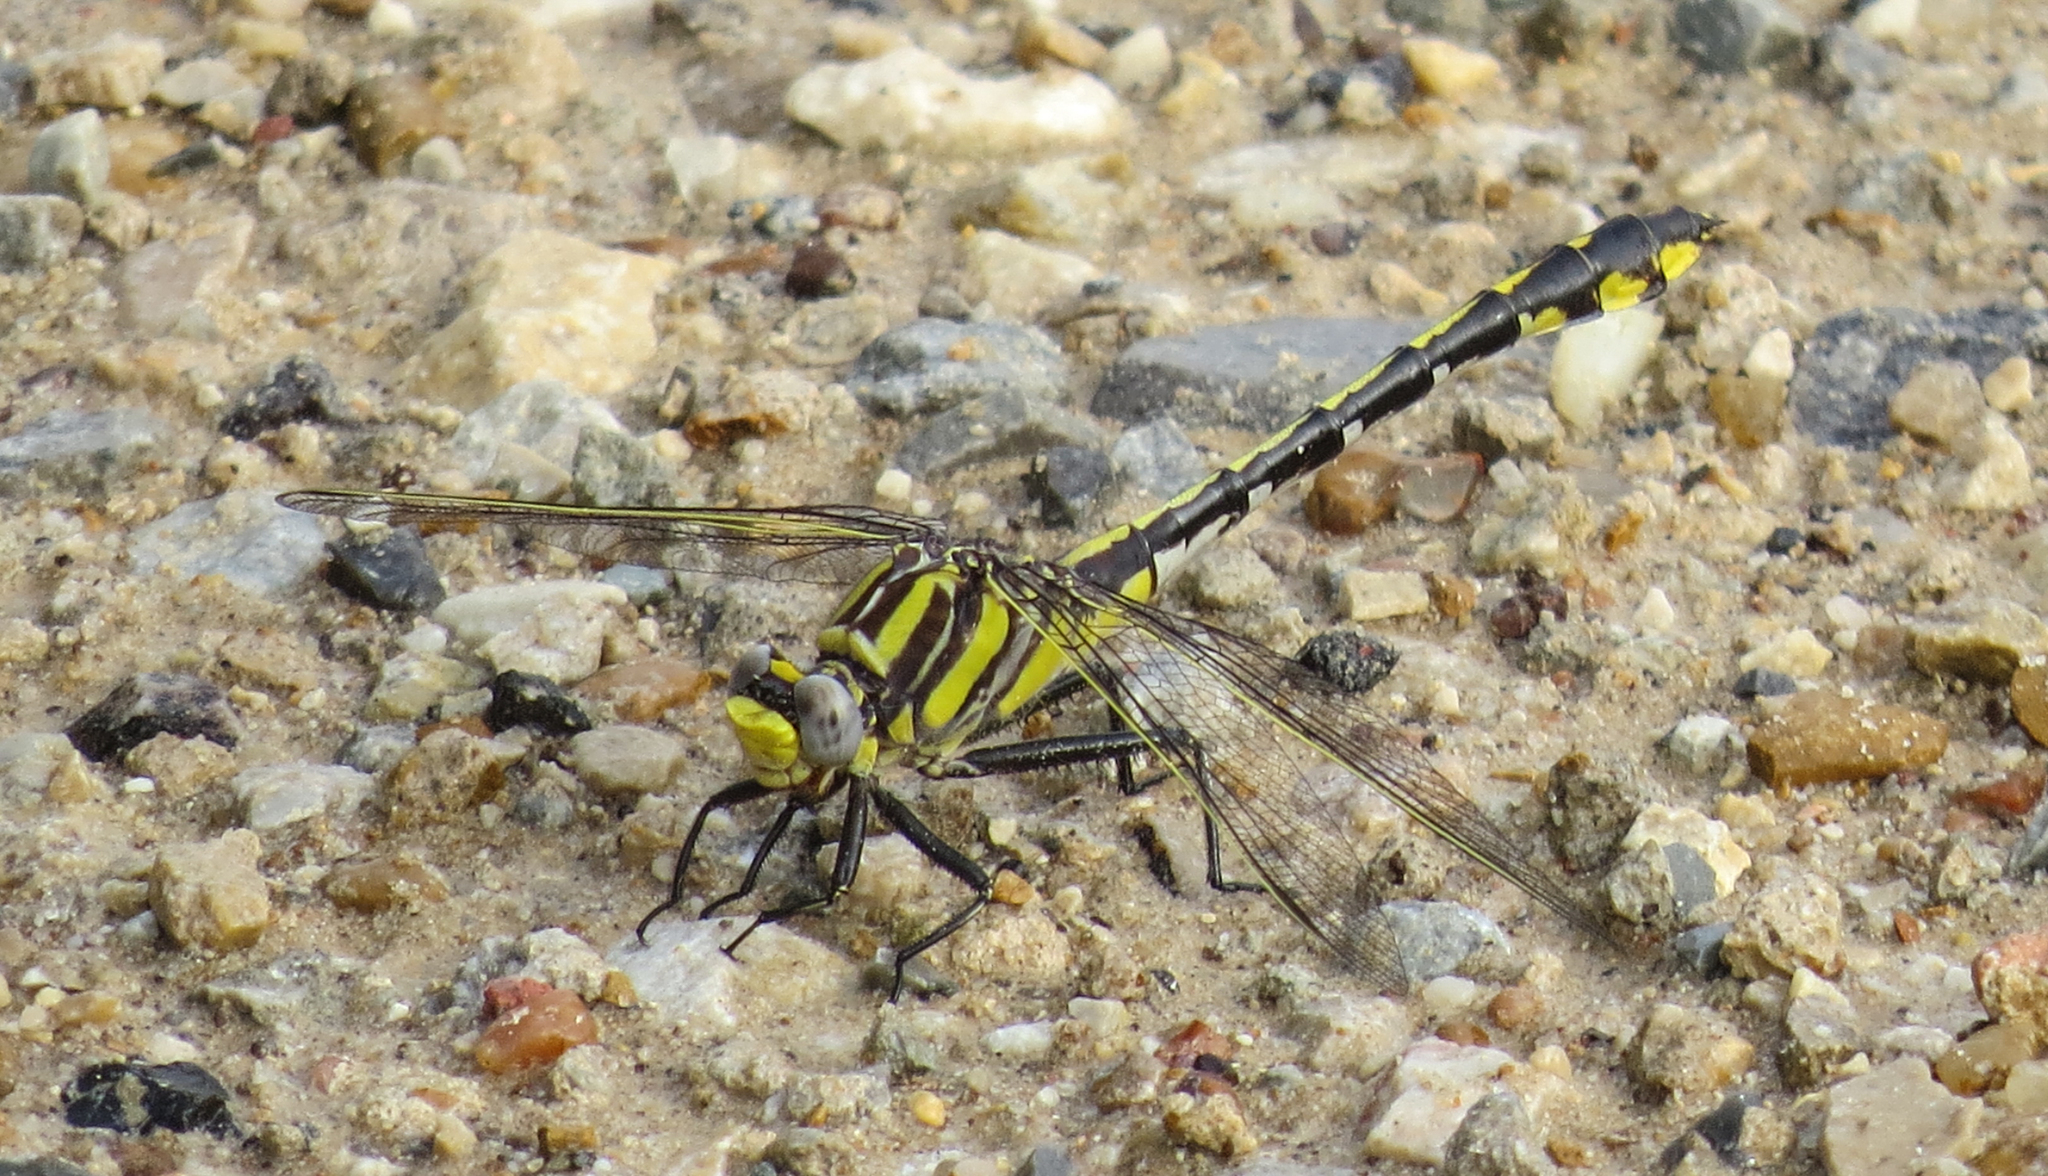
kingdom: Animalia
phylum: Arthropoda
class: Insecta
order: Odonata
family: Gomphidae
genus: Gomphurus
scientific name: Gomphurus externus
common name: Plains clubtail
